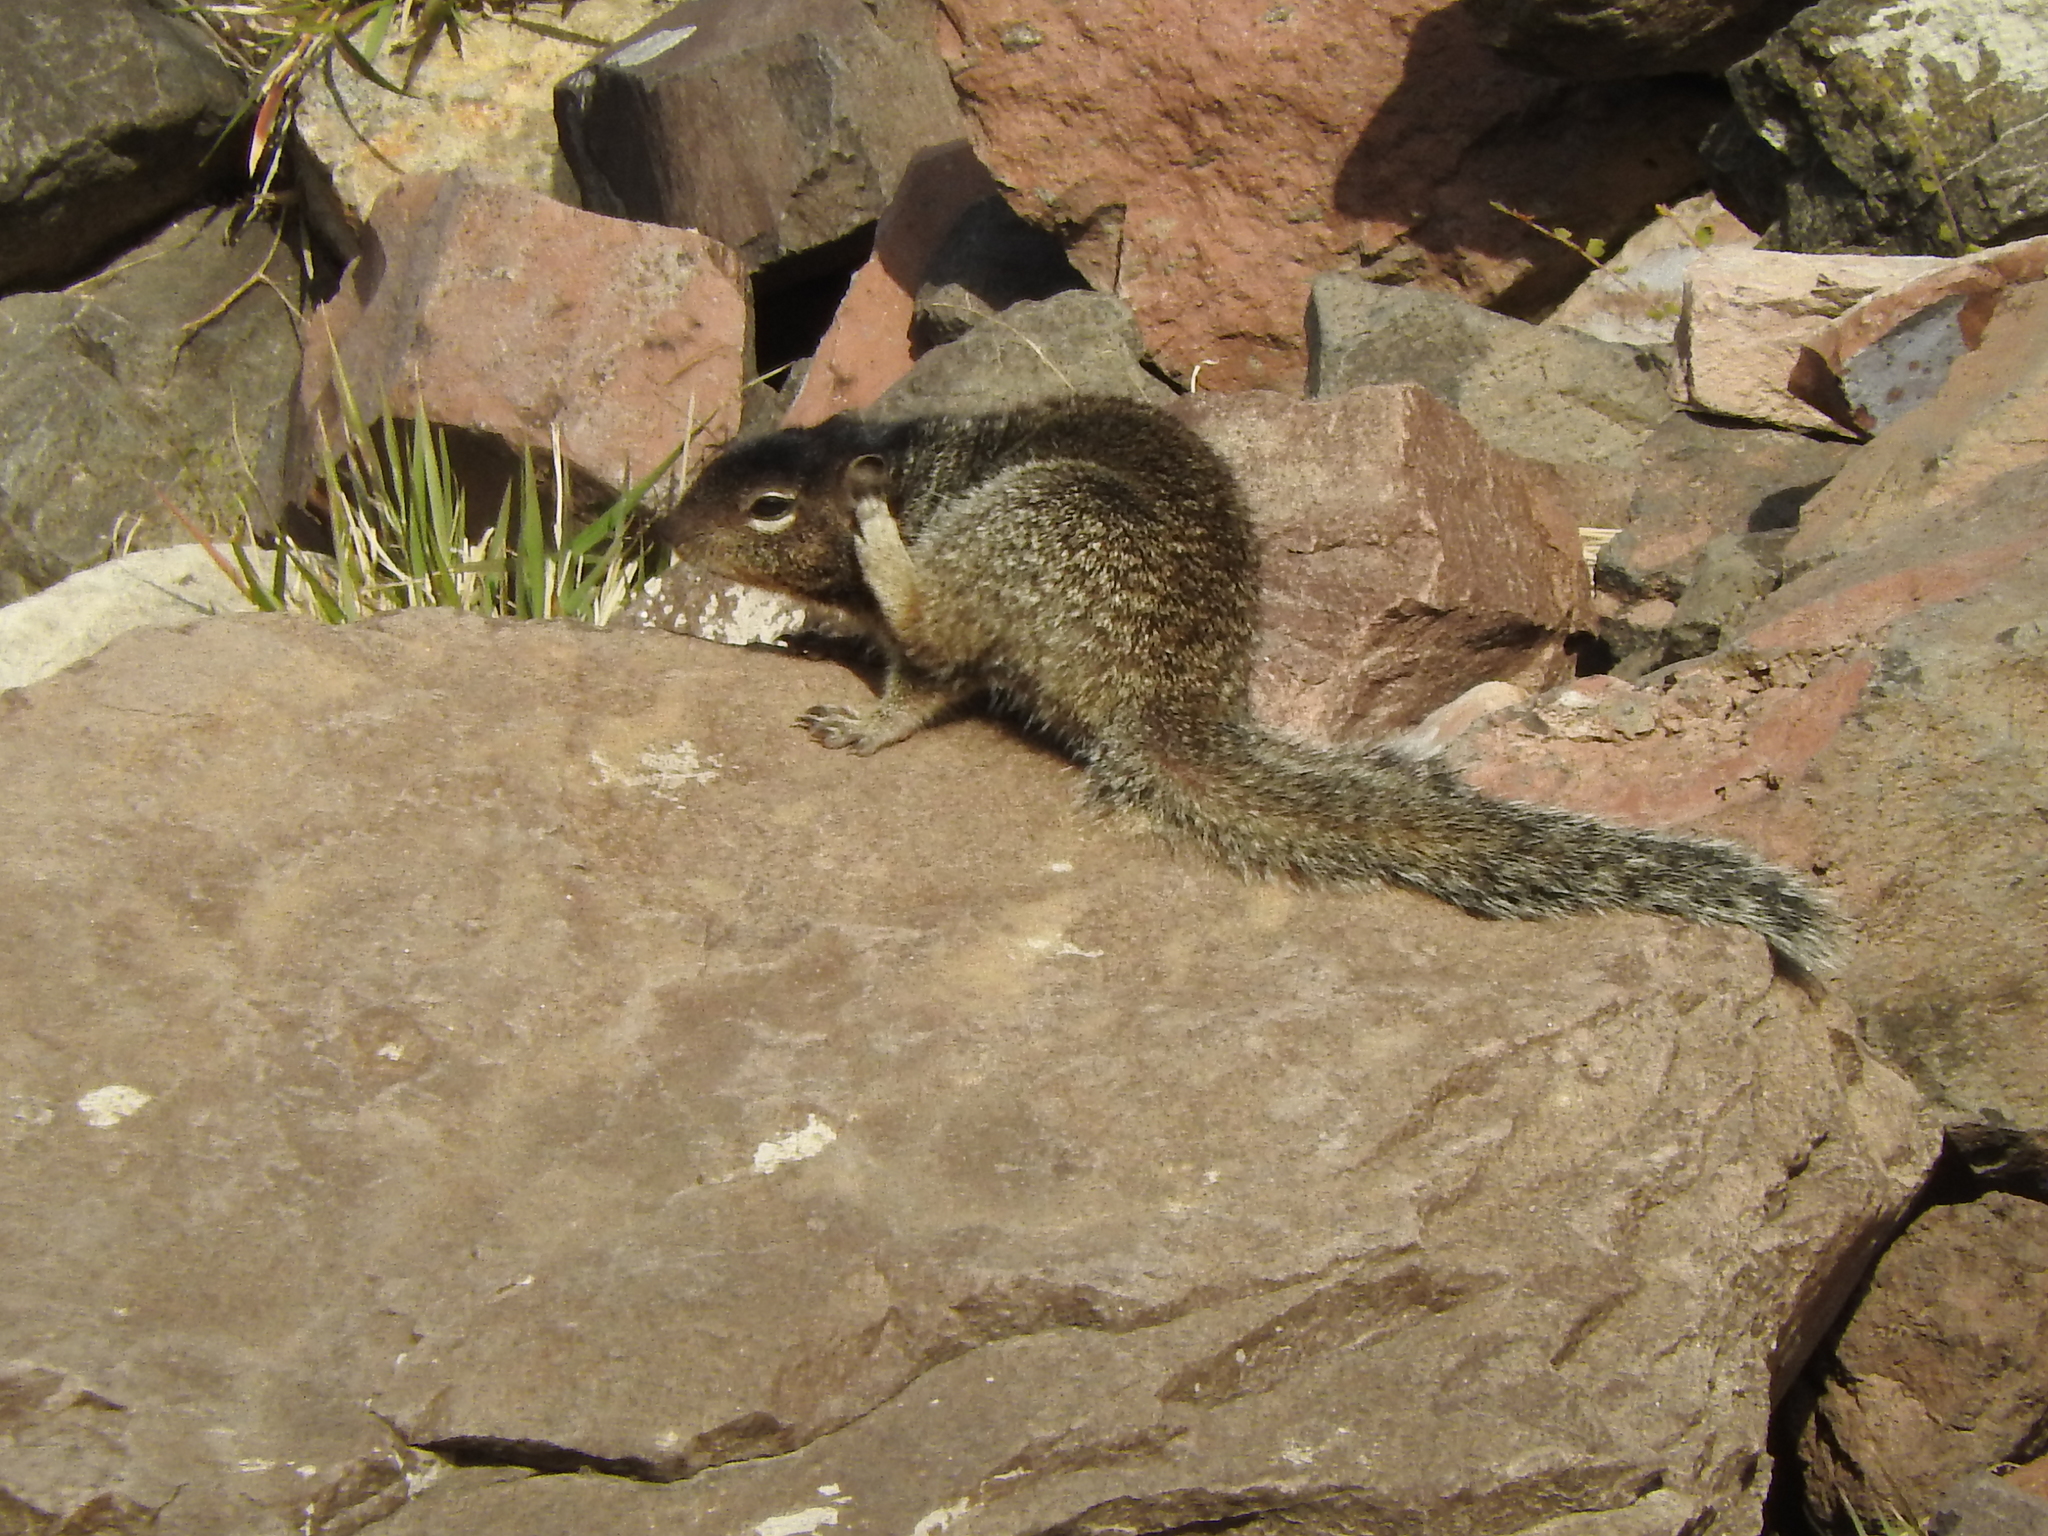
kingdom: Animalia
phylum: Chordata
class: Mammalia
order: Rodentia
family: Sciuridae
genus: Otospermophilus
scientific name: Otospermophilus variegatus
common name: Rock squirrel
